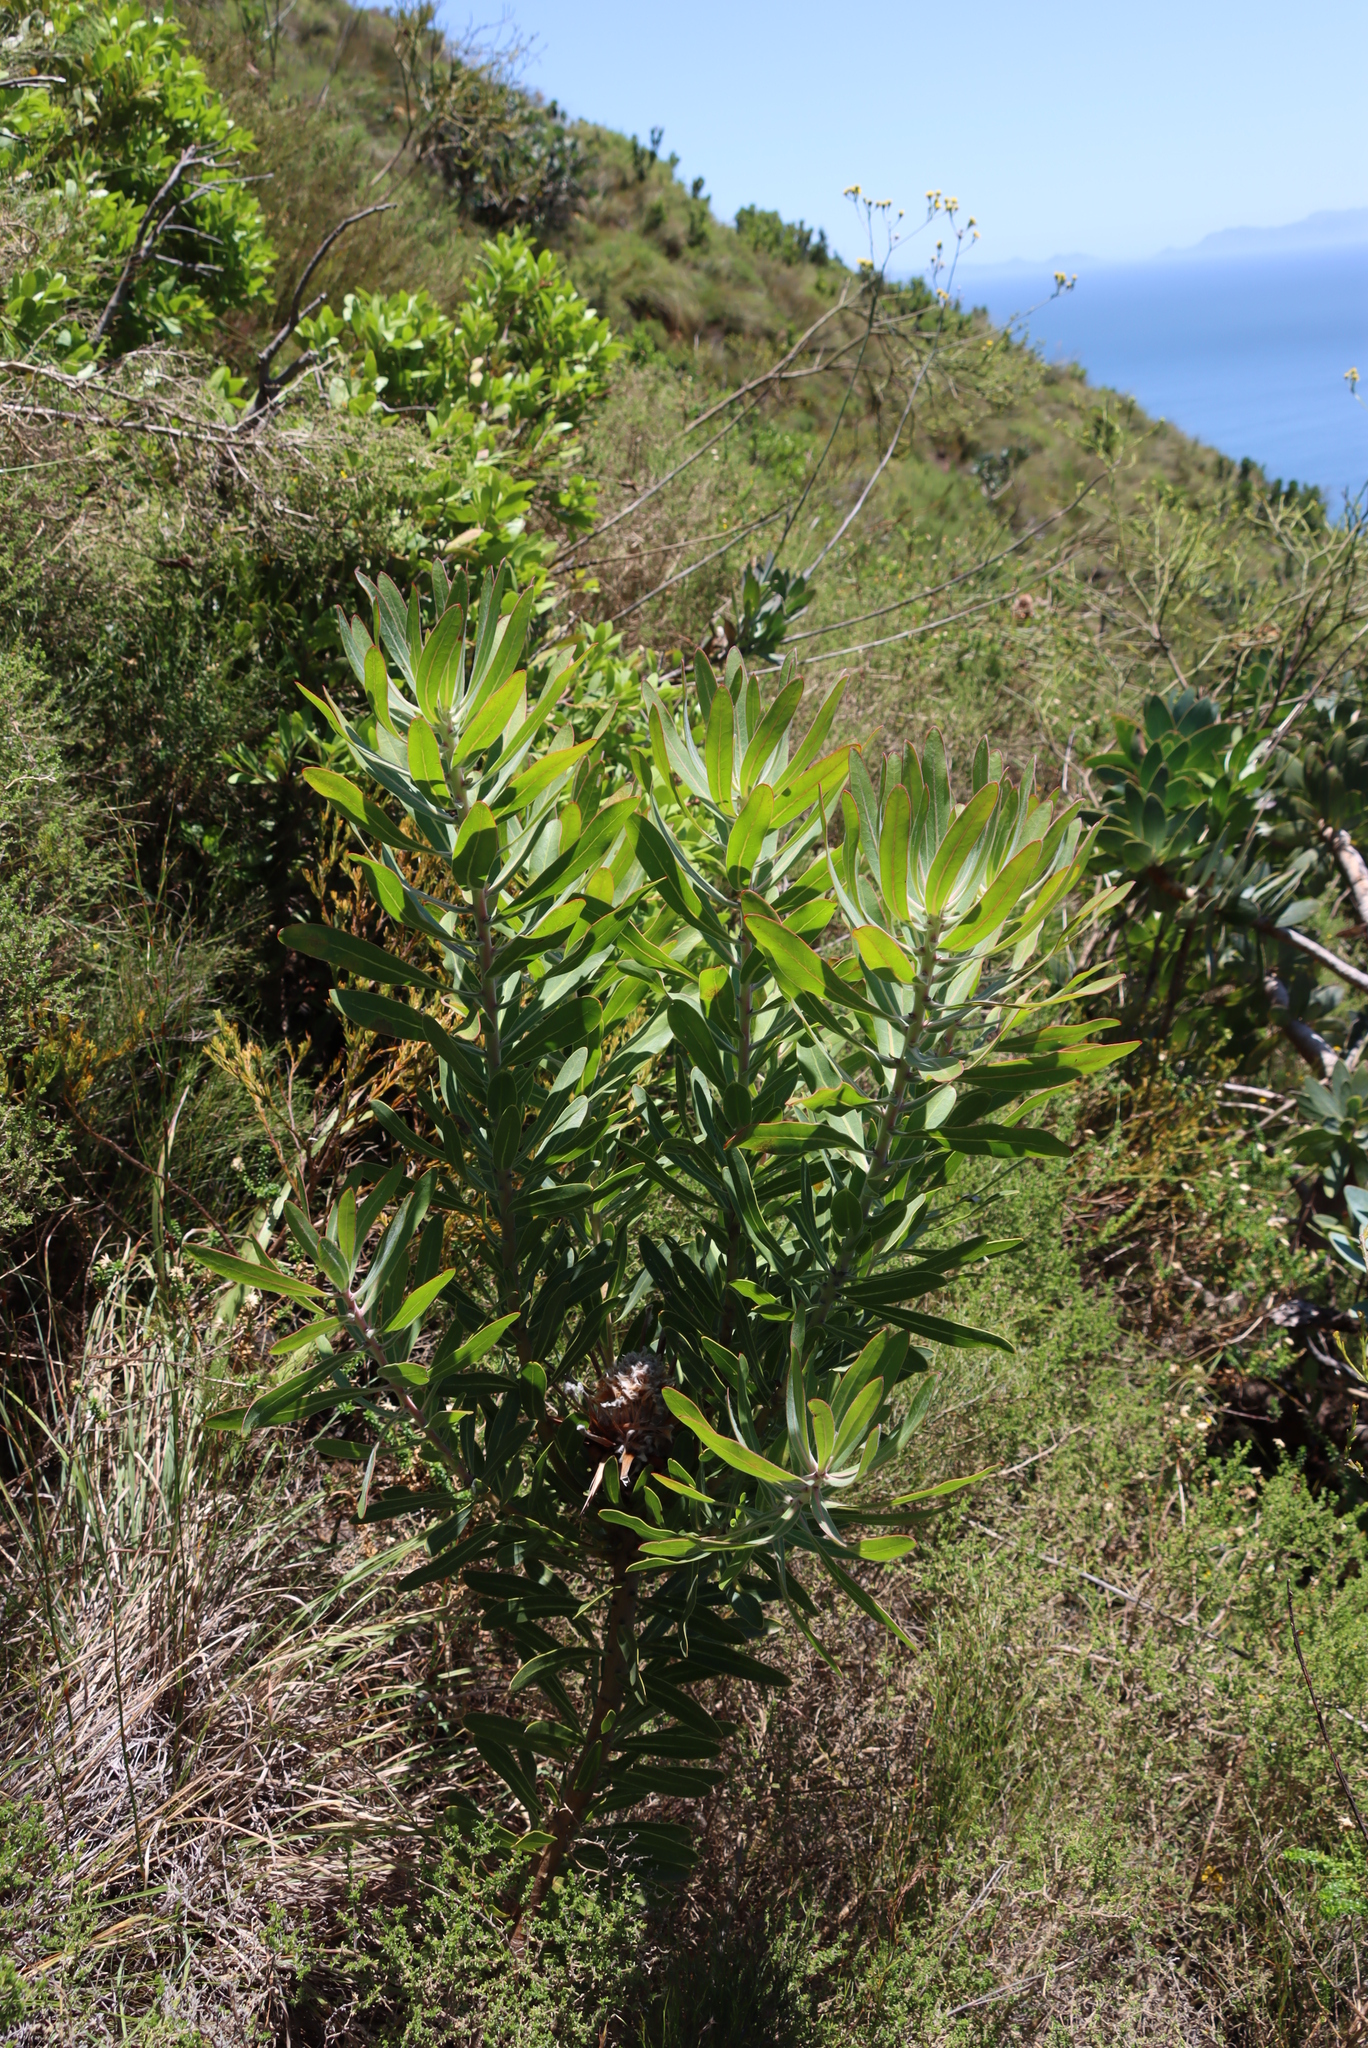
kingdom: Plantae
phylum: Tracheophyta
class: Magnoliopsida
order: Proteales
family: Proteaceae
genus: Protea
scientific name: Protea laurifolia
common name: Grey-leaf sugarbsh
